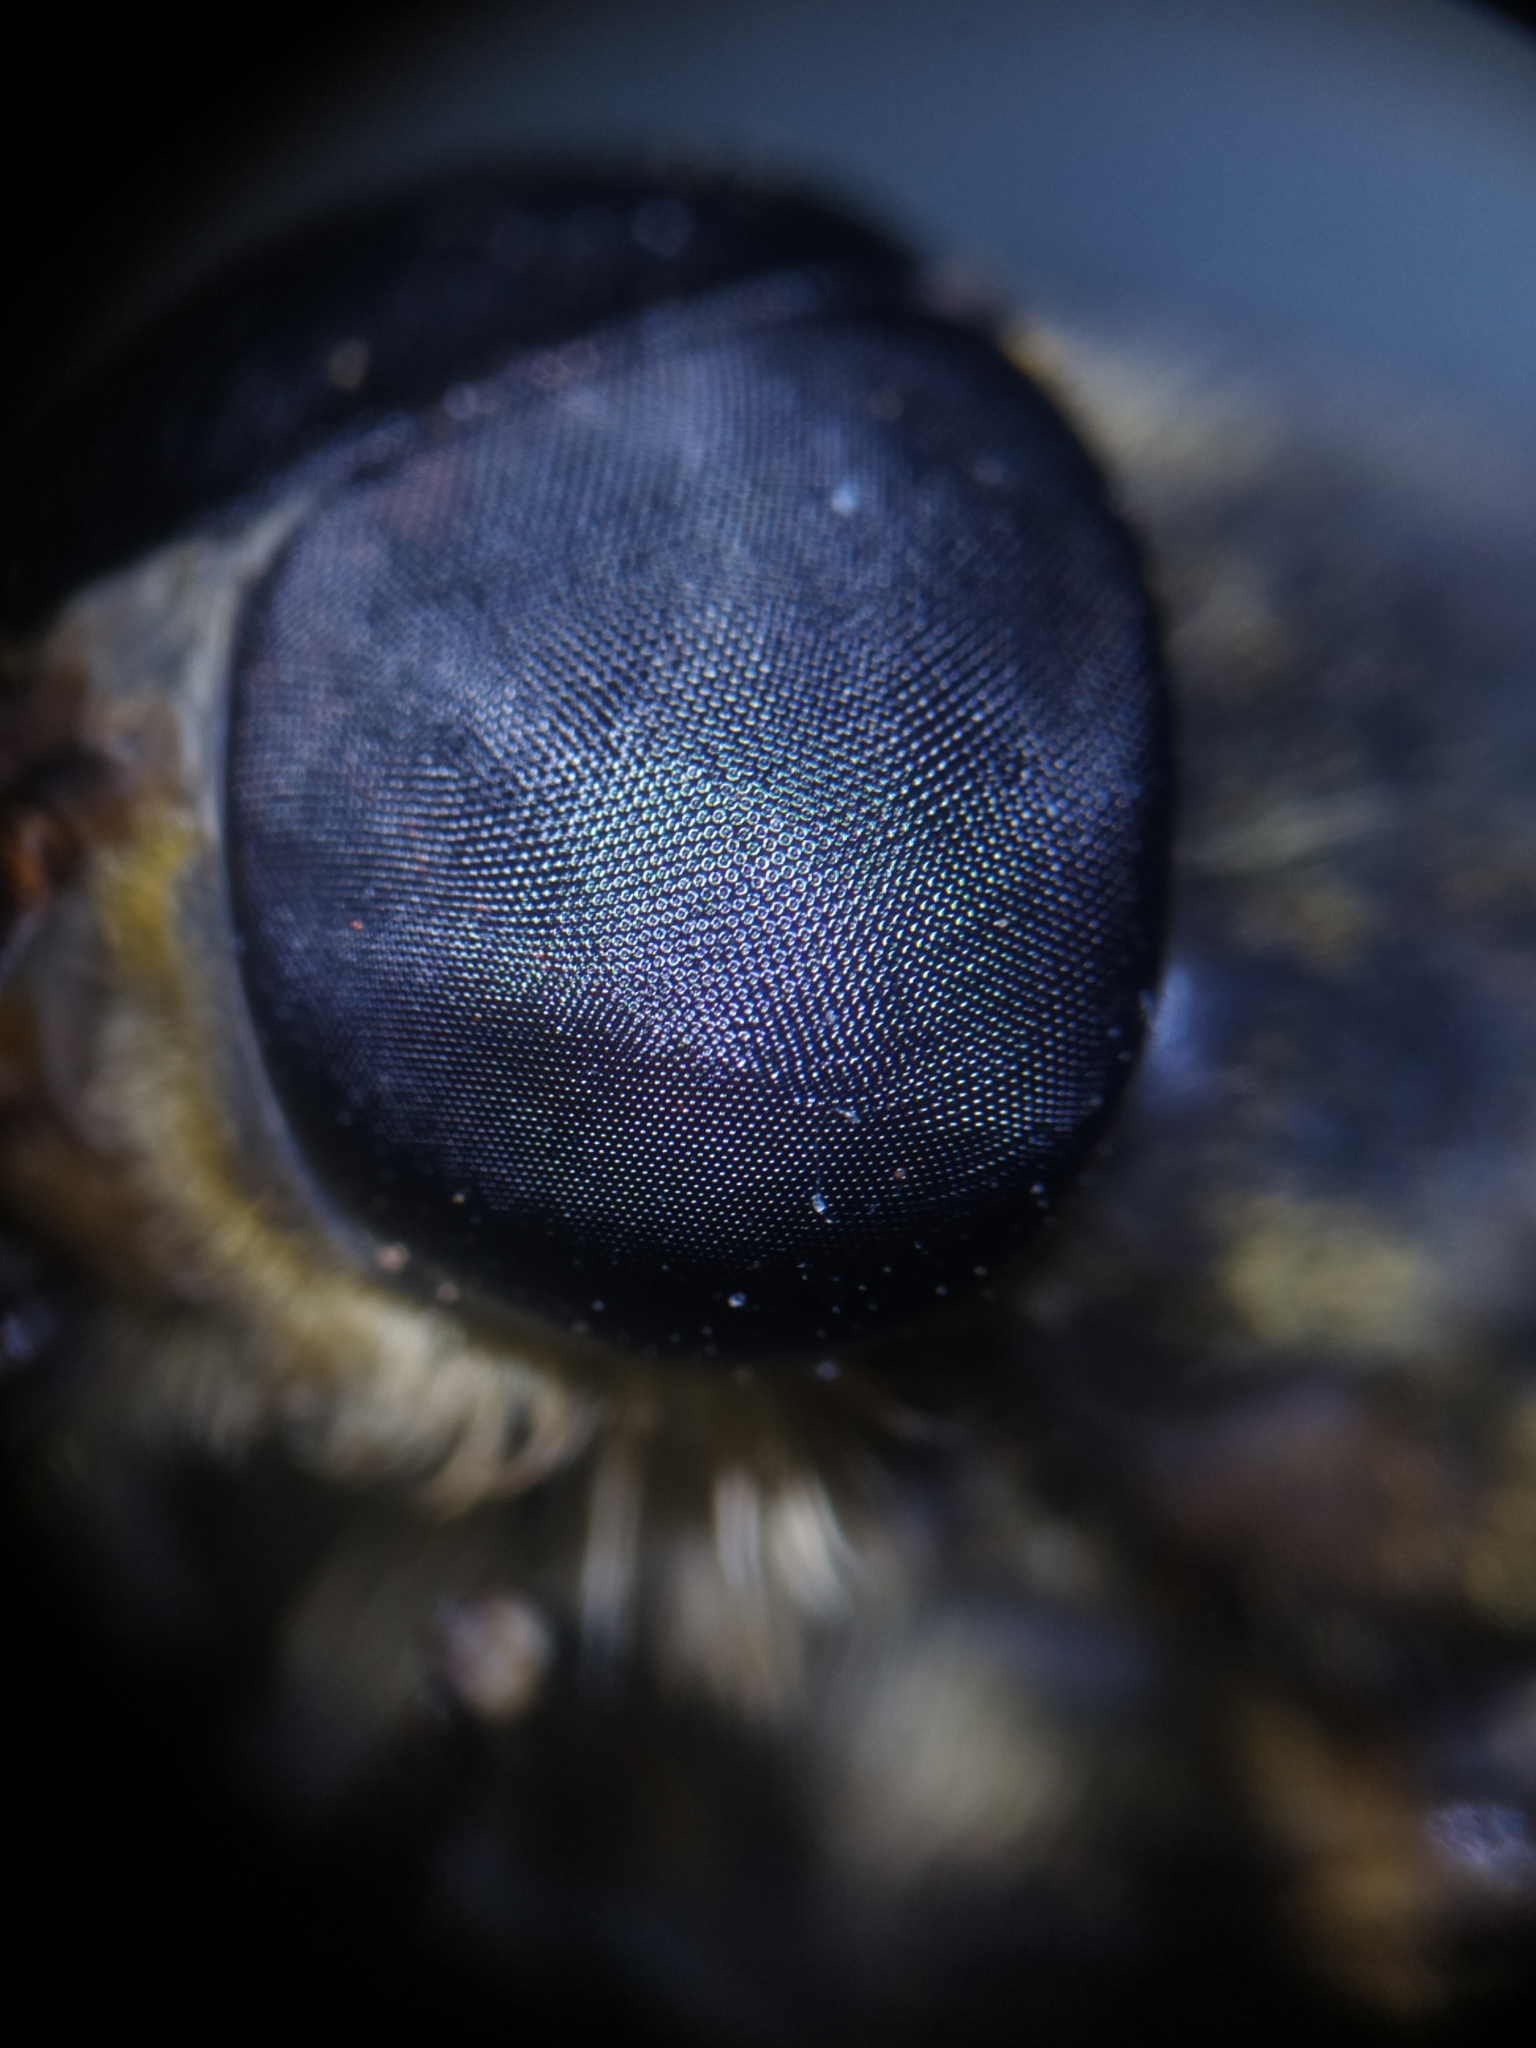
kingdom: Animalia
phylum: Arthropoda
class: Insecta
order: Diptera
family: Tabanidae
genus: Tabanus
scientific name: Tabanus sudeticus
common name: Dark giant horsefly
